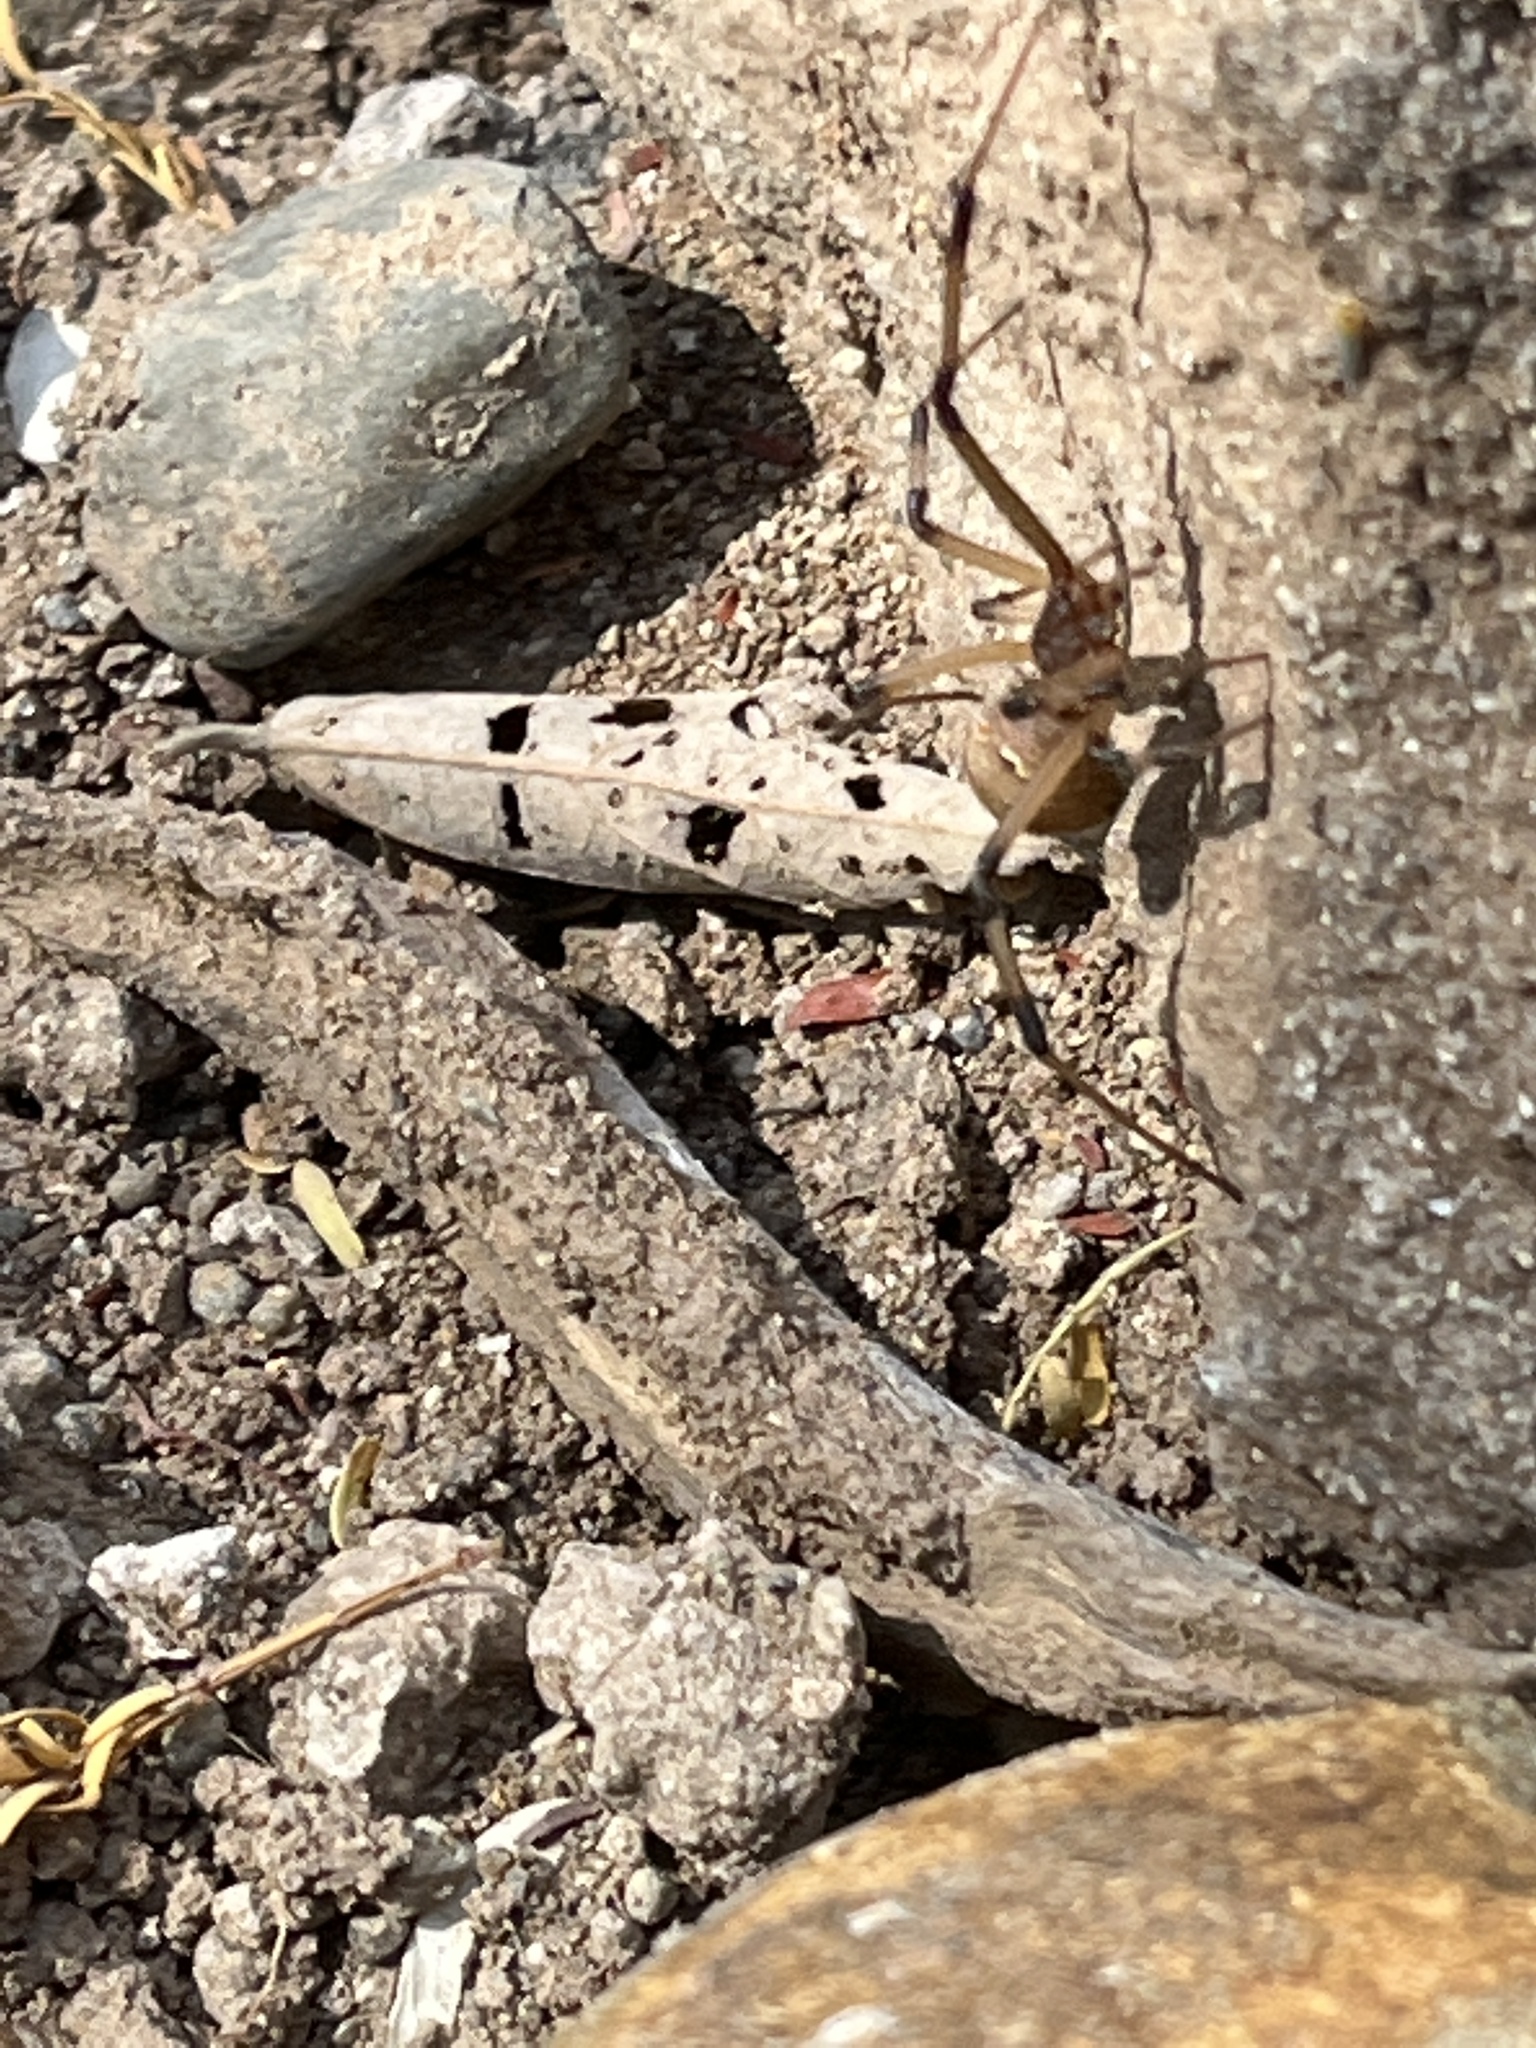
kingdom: Animalia
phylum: Arthropoda
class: Arachnida
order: Araneae
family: Theridiidae
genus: Latrodectus
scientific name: Latrodectus geometricus
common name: Brown widow spider
